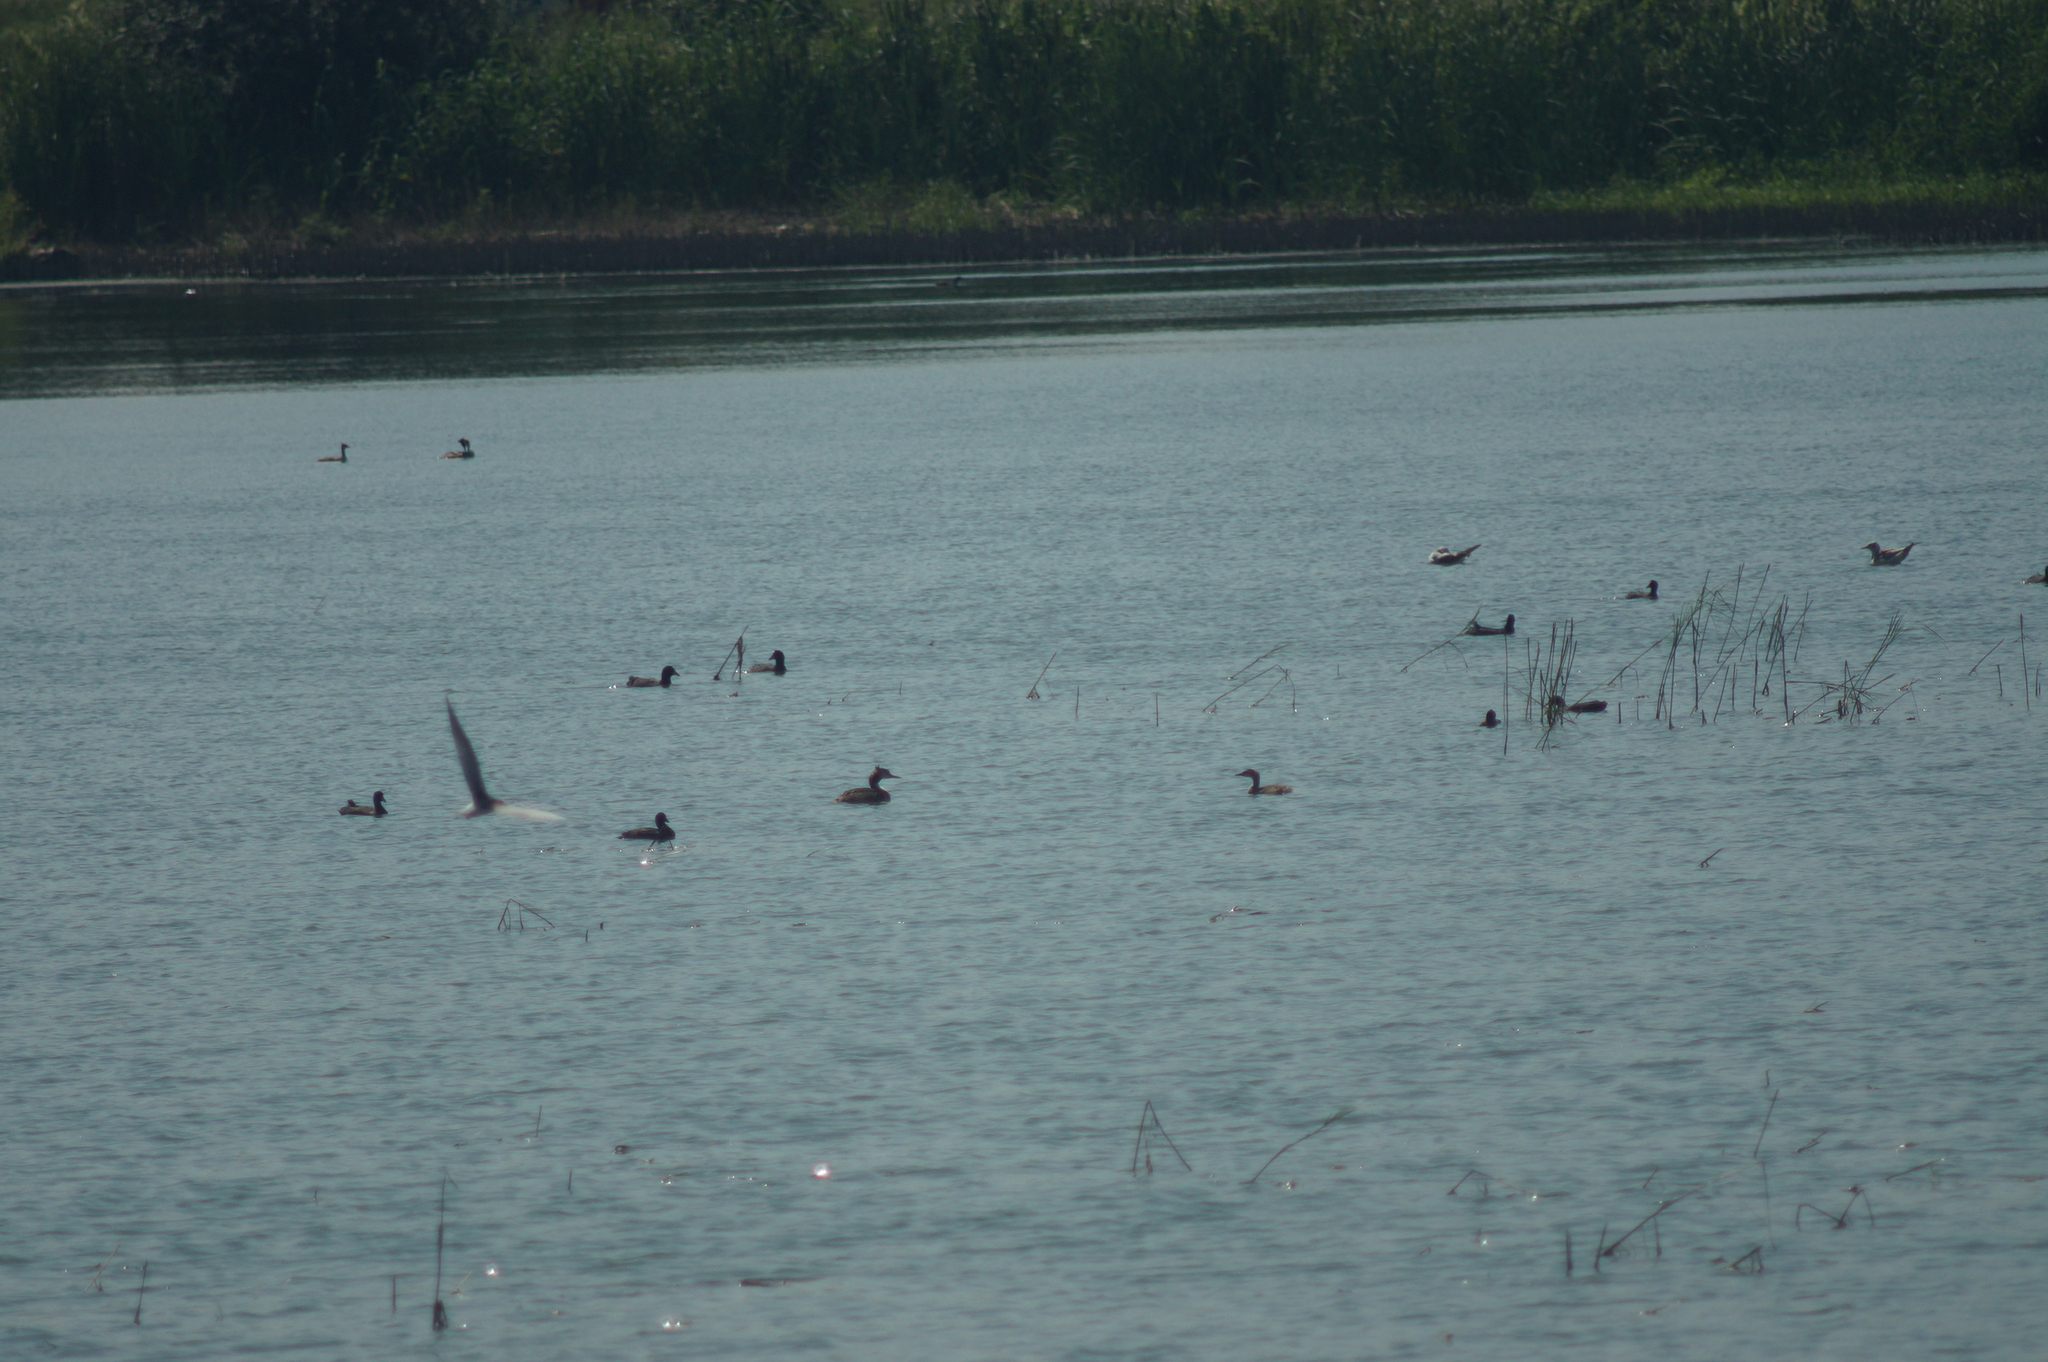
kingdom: Animalia
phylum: Chordata
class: Aves
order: Podicipediformes
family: Podicipedidae
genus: Podiceps
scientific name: Podiceps cristatus
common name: Great crested grebe
